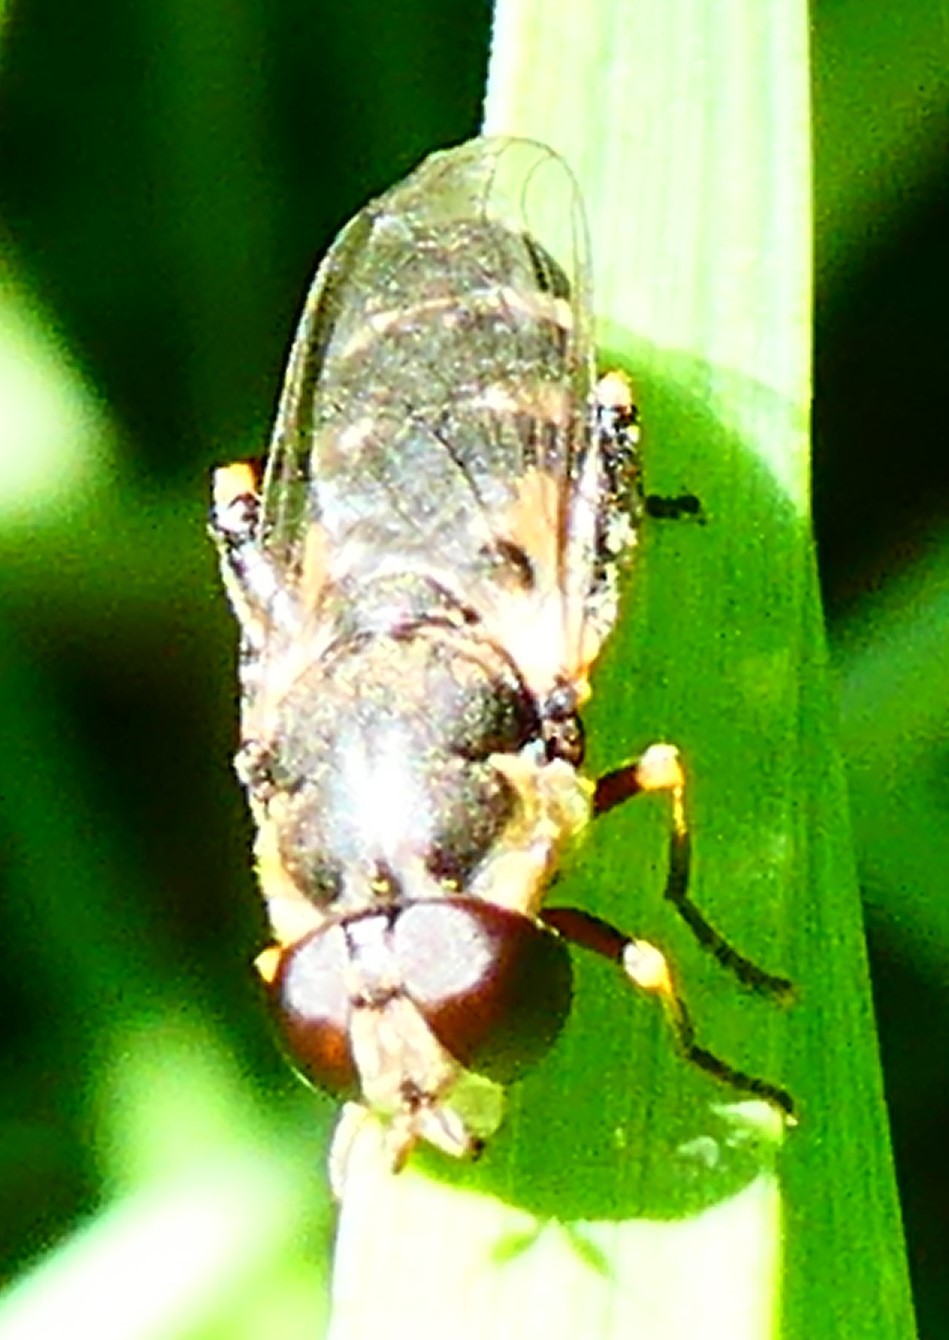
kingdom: Animalia
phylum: Arthropoda
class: Insecta
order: Diptera
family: Syrphidae
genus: Syritta
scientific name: Syritta pipiens
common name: Hover fly
